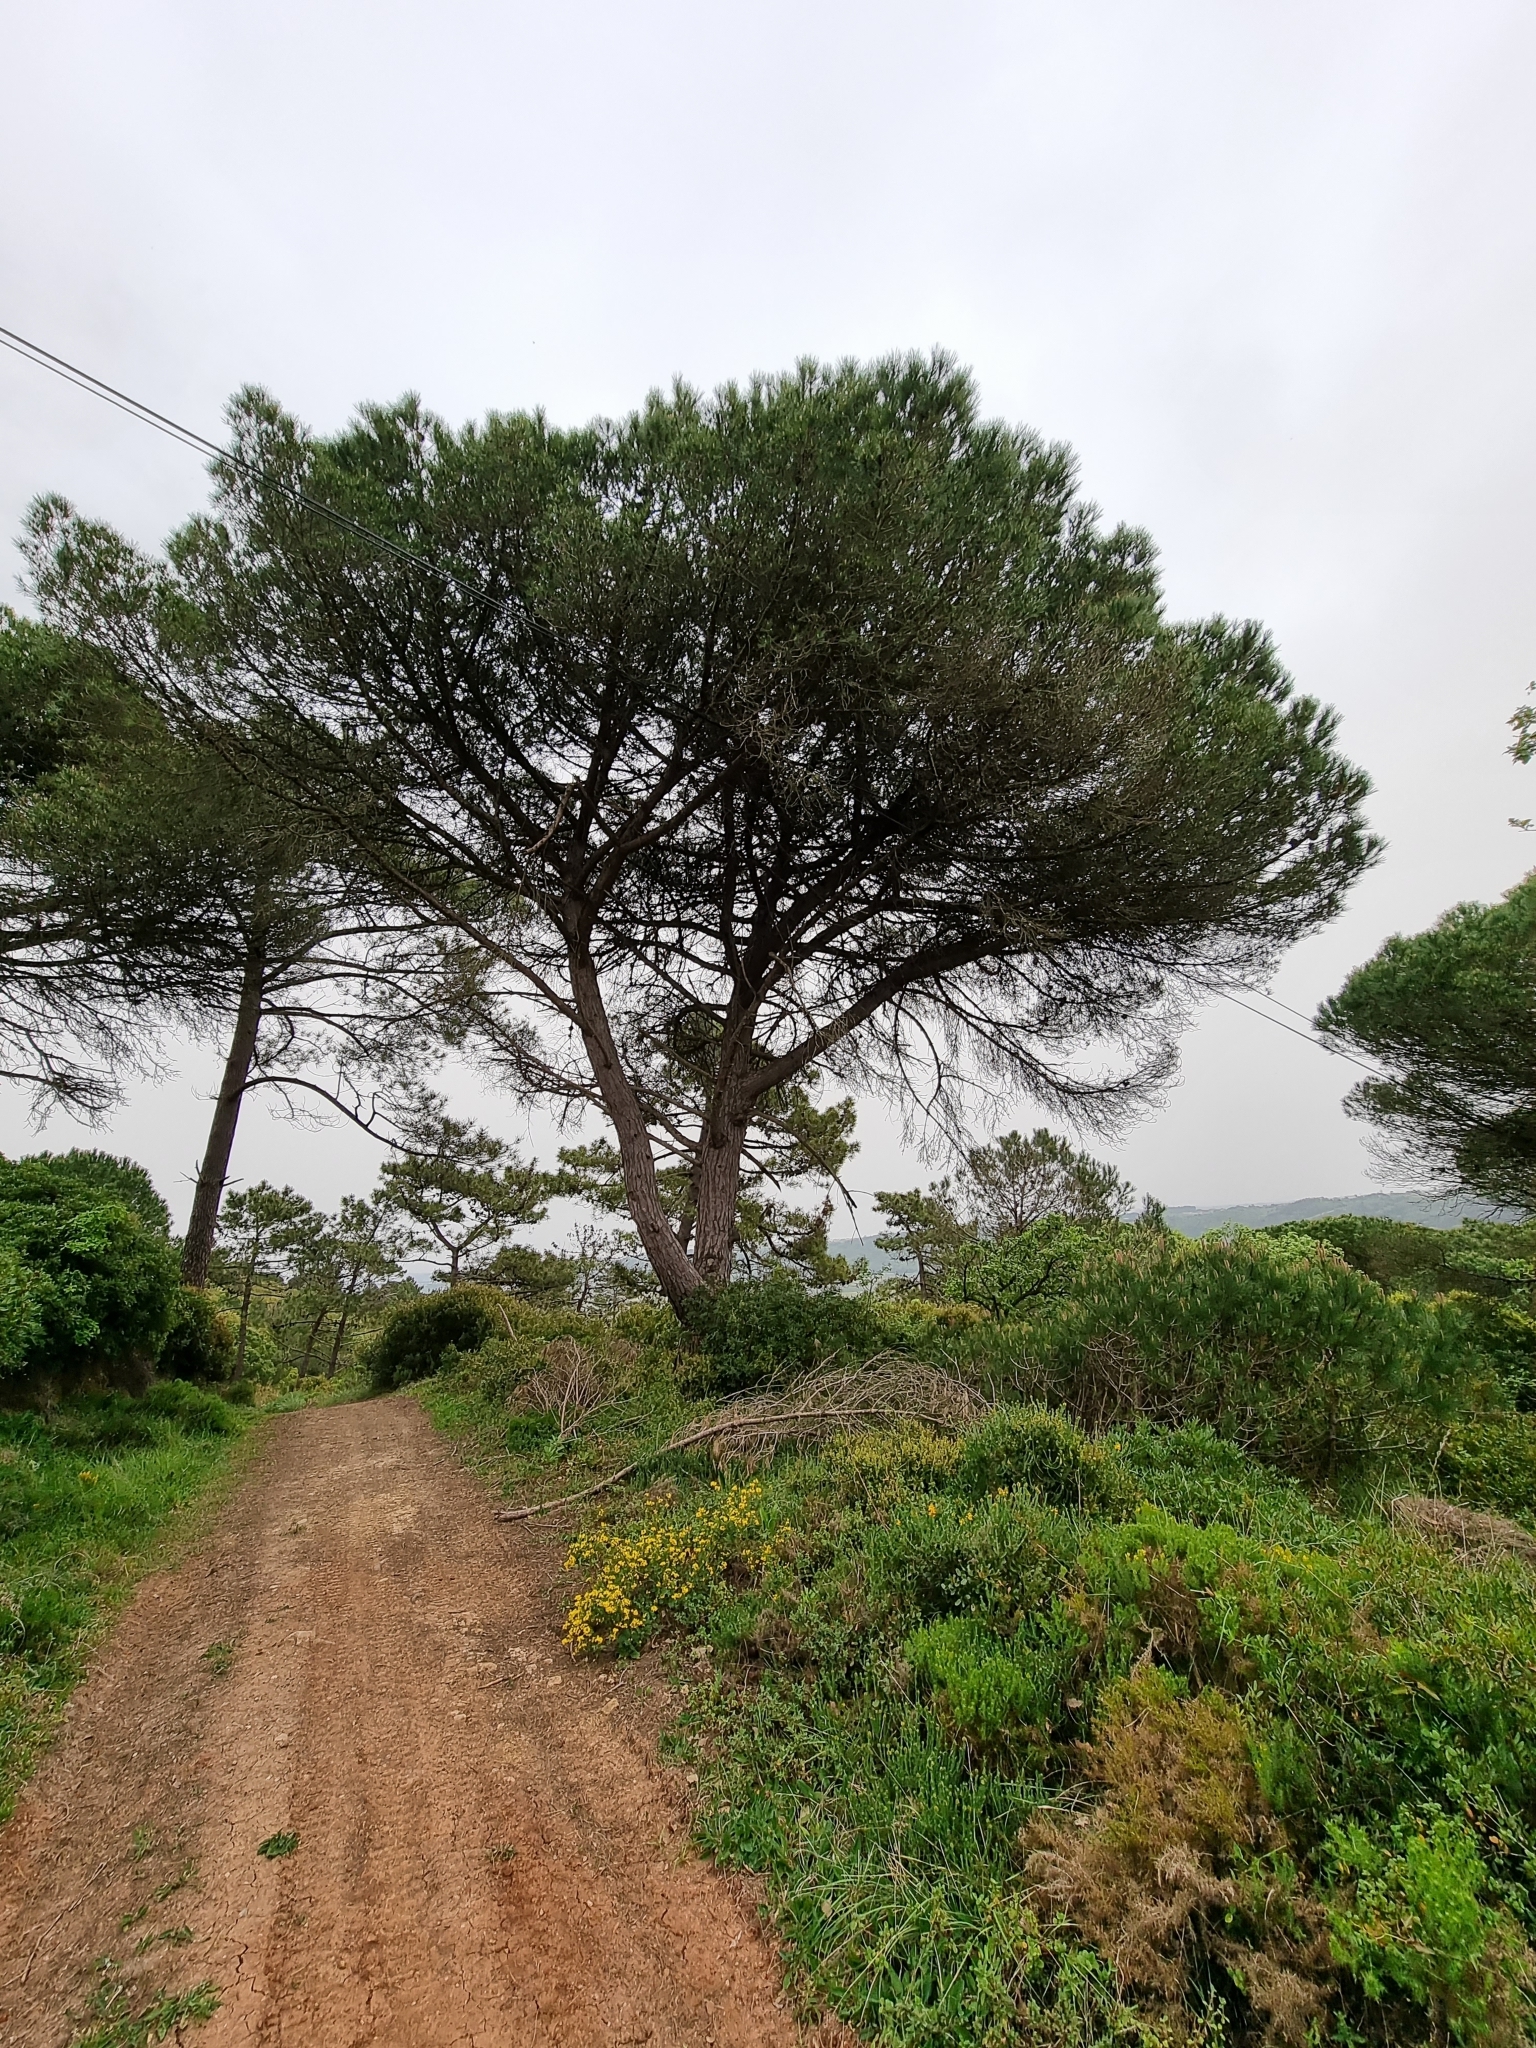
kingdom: Plantae
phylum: Tracheophyta
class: Pinopsida
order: Pinales
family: Pinaceae
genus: Pinus
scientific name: Pinus pinea
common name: Italian stone pine
